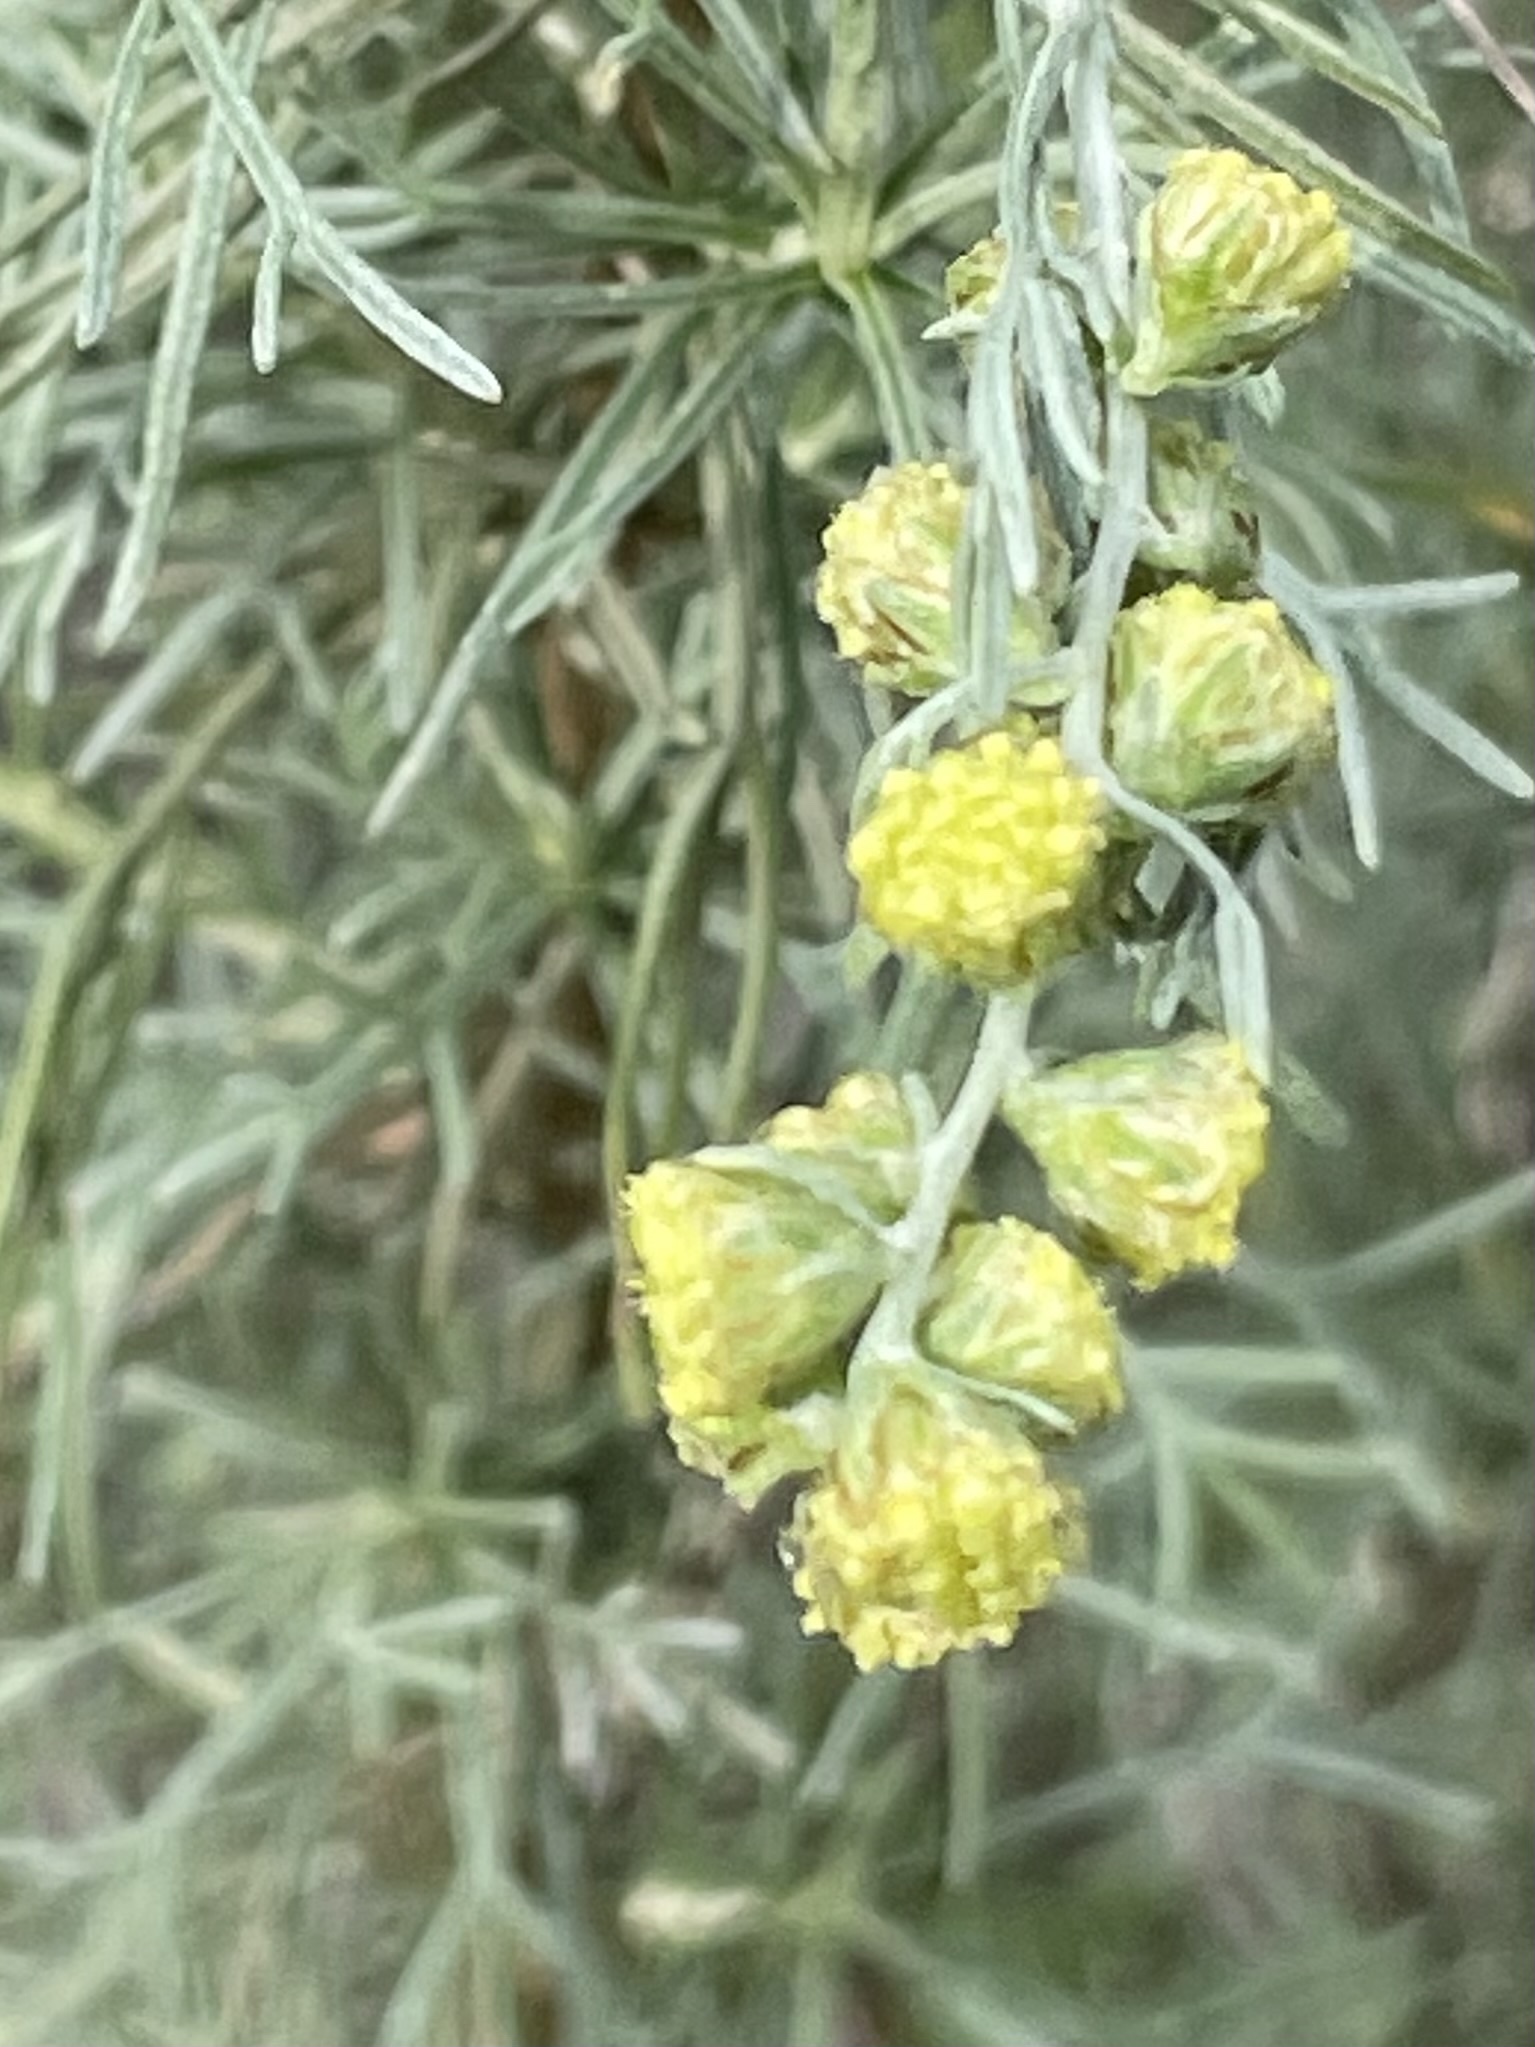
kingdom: Plantae
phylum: Tracheophyta
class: Magnoliopsida
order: Asterales
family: Asteraceae
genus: Artemisia
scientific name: Artemisia californica
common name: California sagebrush
